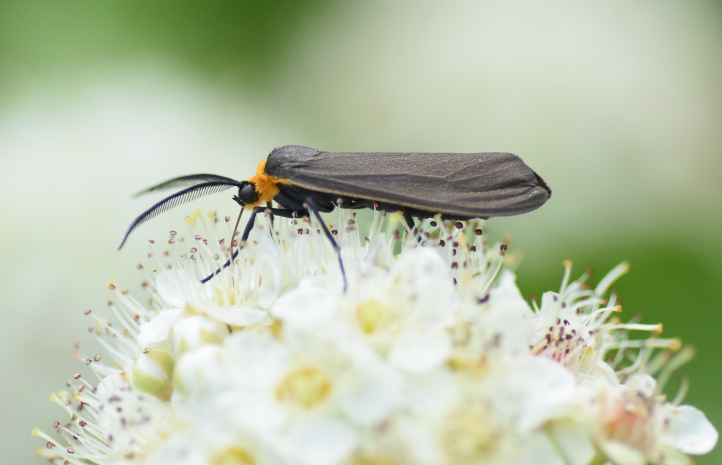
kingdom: Animalia
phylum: Arthropoda
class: Insecta
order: Lepidoptera
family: Erebidae
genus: Cisseps
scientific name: Cisseps fulvicollis
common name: Yellow-collared scape moth
